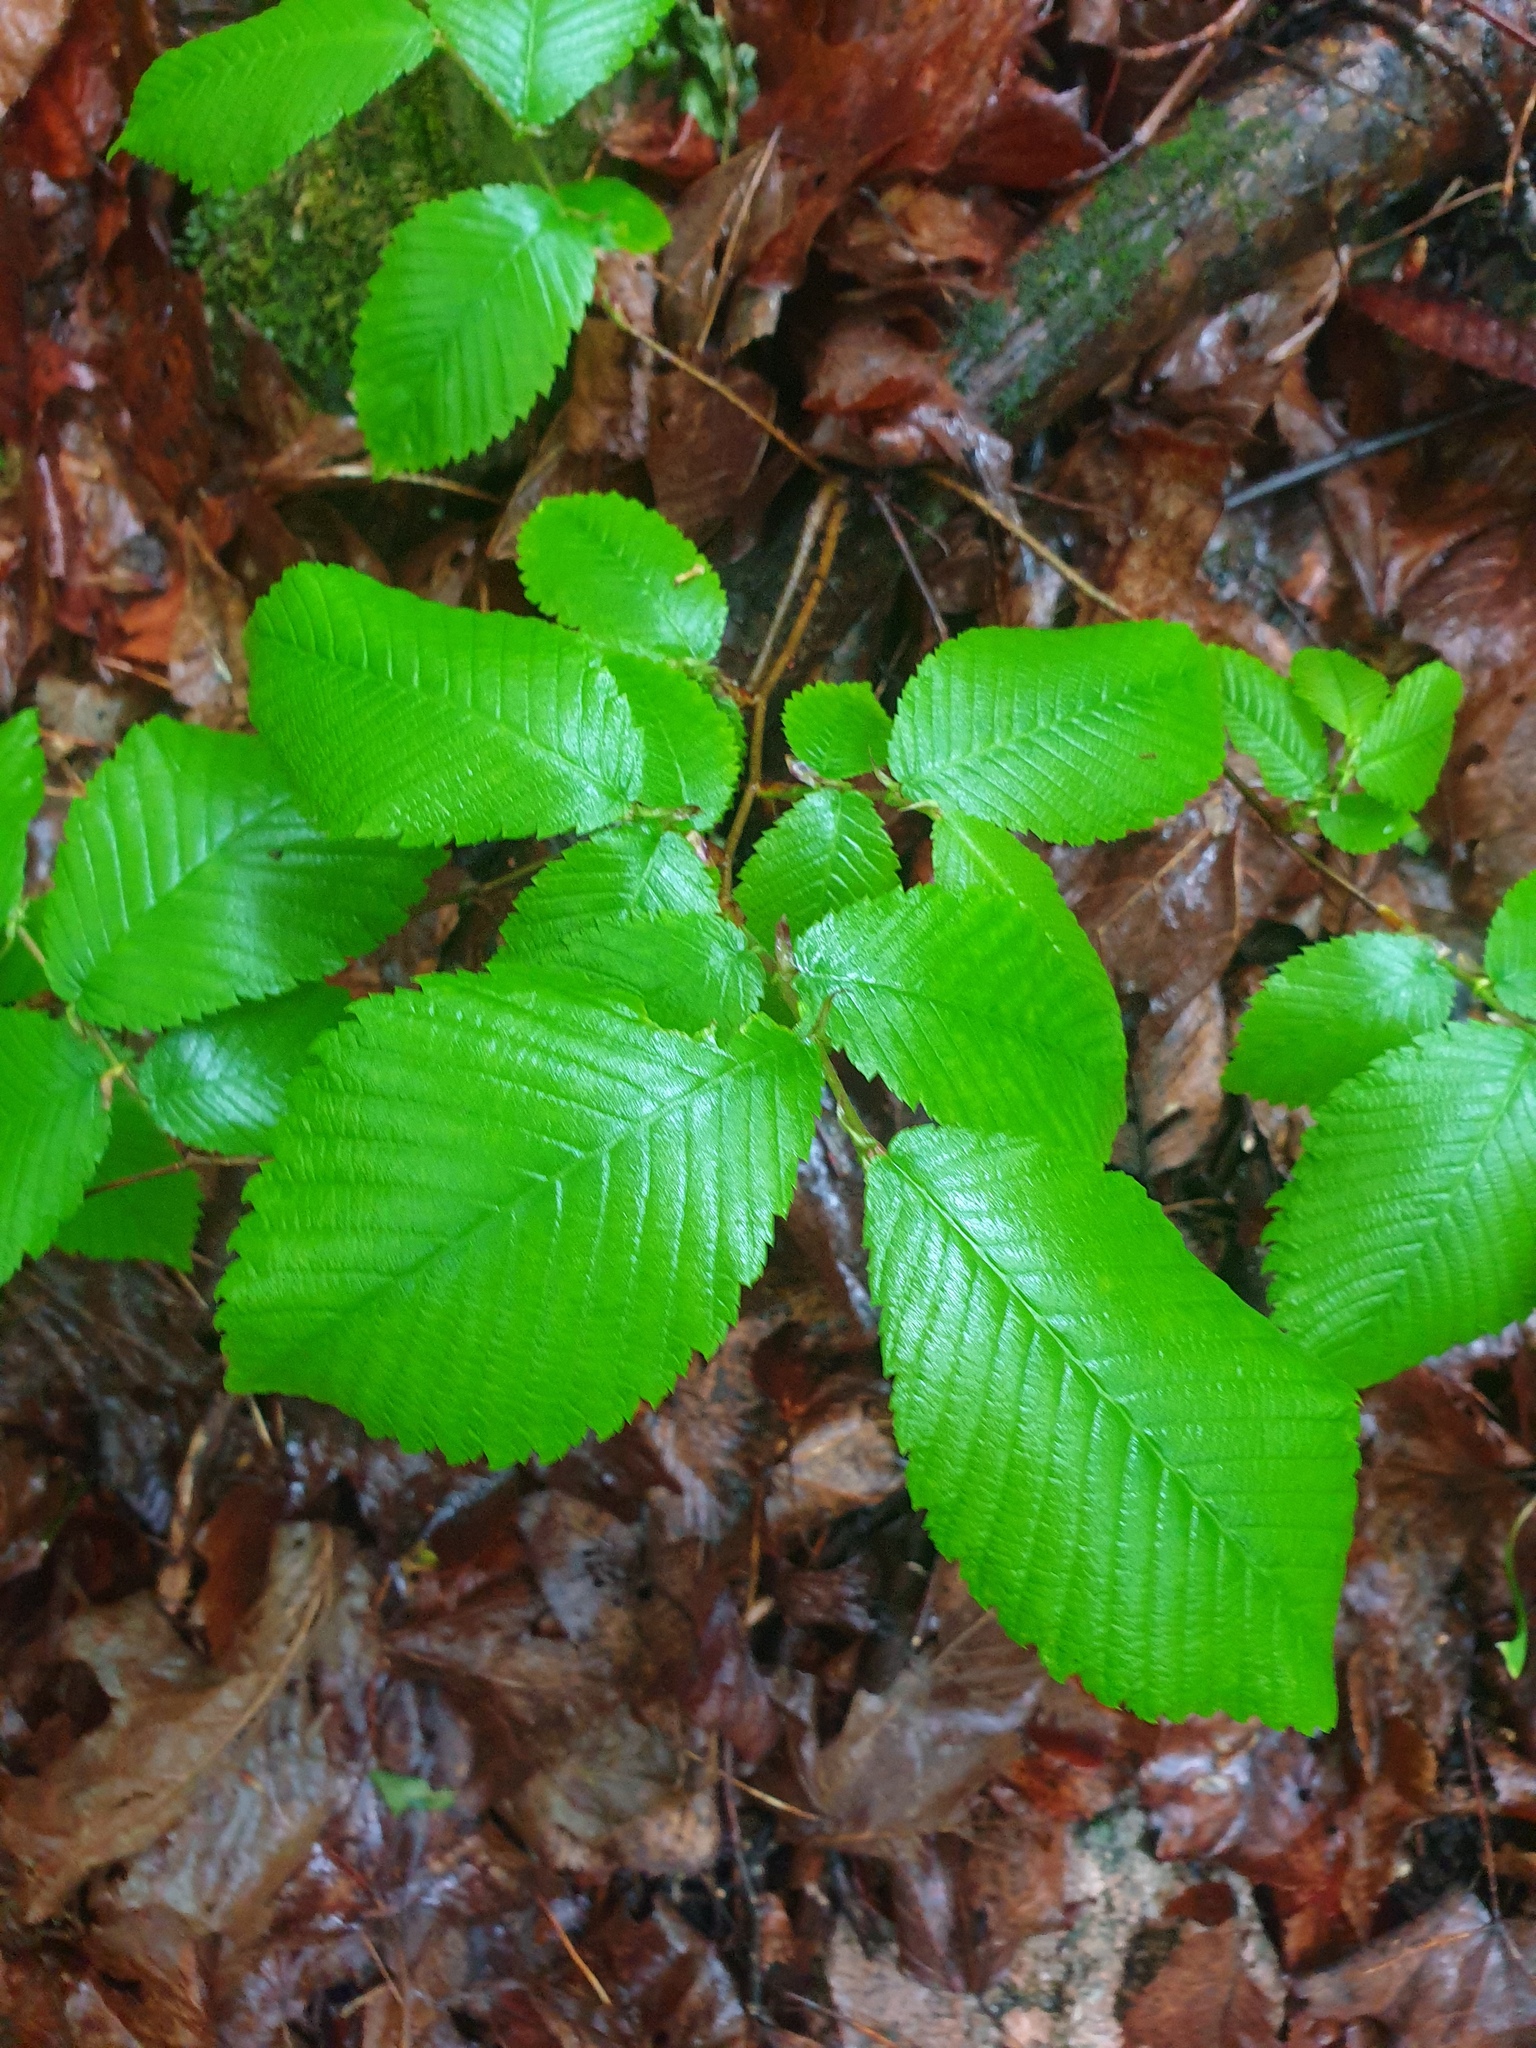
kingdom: Plantae
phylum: Tracheophyta
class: Magnoliopsida
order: Rosales
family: Ulmaceae
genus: Ulmus
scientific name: Ulmus thomasii
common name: Rock elm
